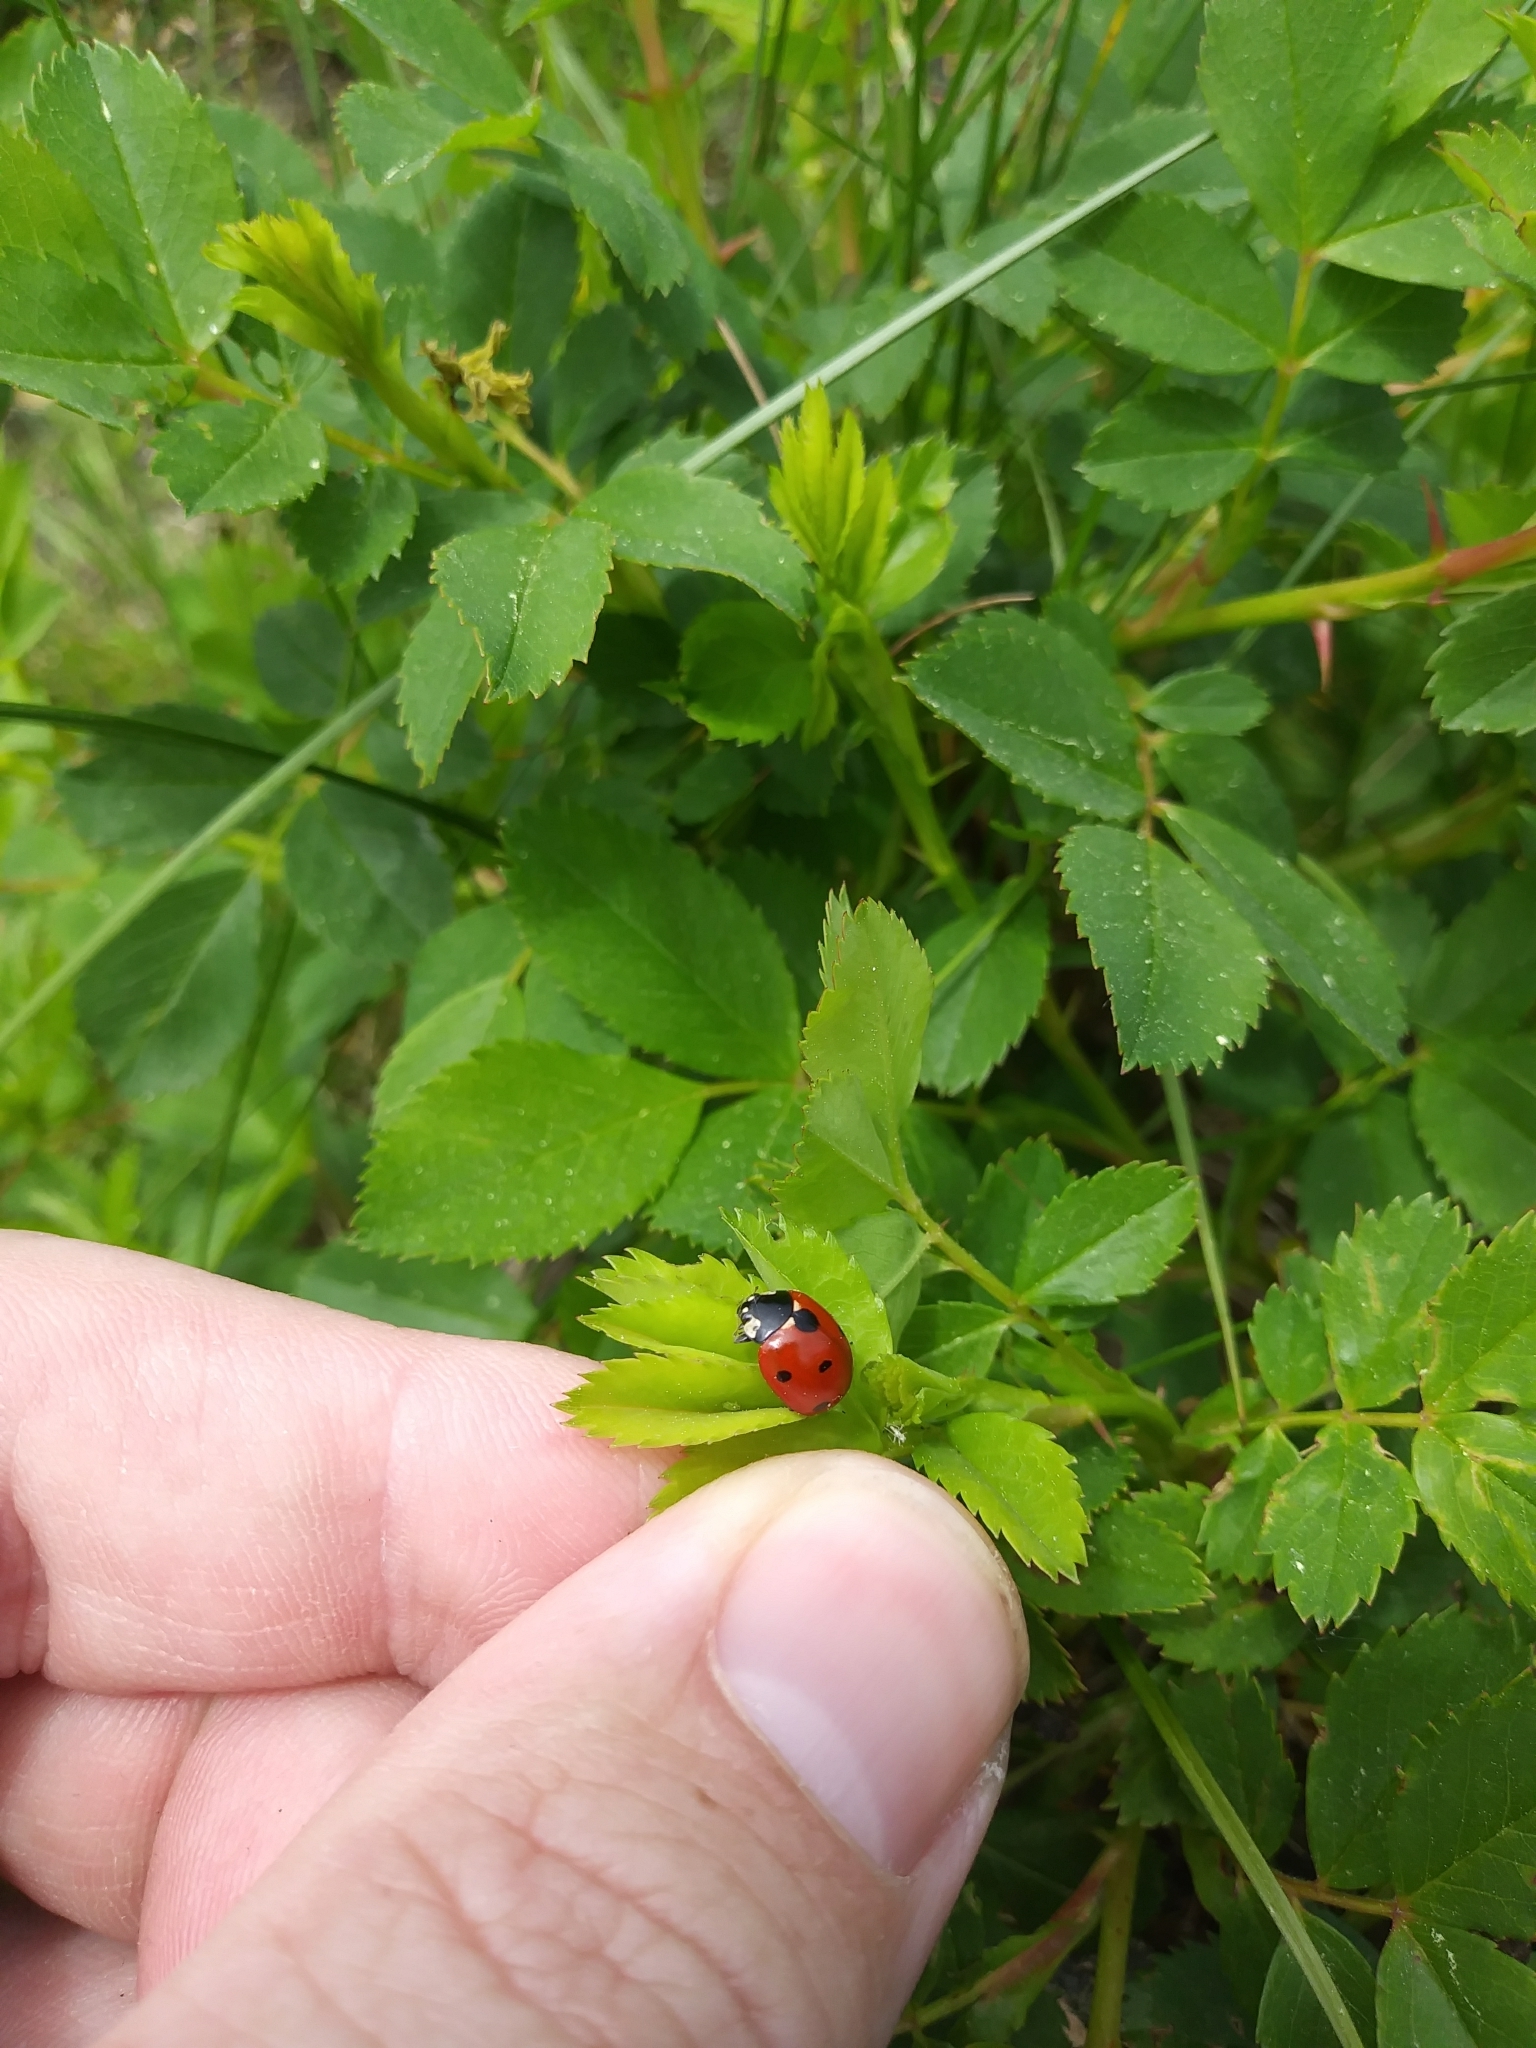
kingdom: Animalia
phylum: Arthropoda
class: Insecta
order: Coleoptera
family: Coccinellidae
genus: Coccinella
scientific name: Coccinella septempunctata
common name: Sevenspotted lady beetle
